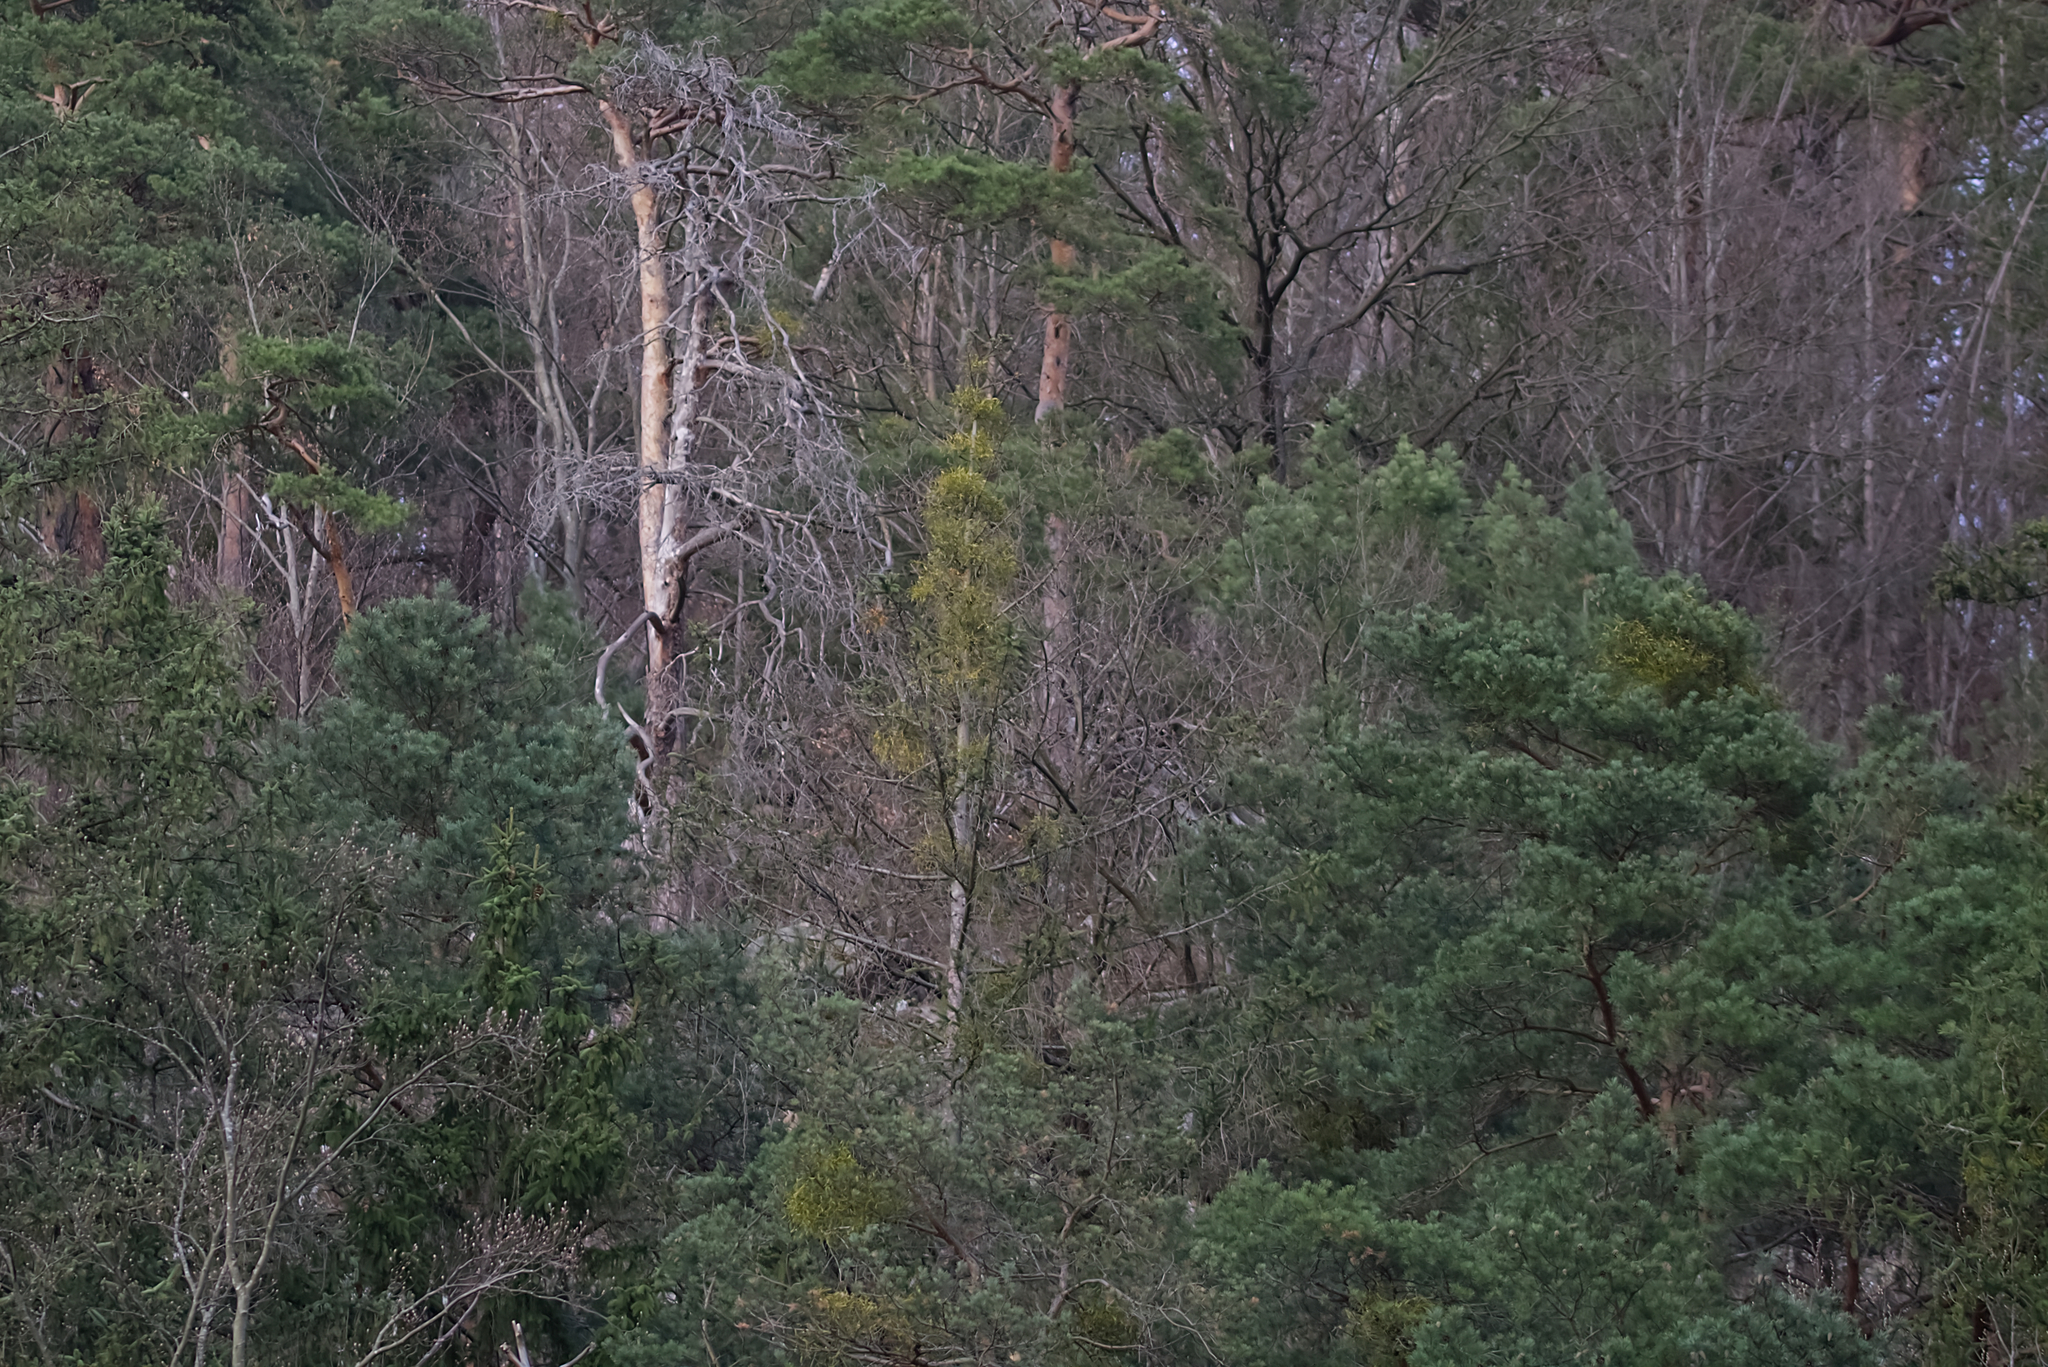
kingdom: Plantae
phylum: Tracheophyta
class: Magnoliopsida
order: Santalales
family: Viscaceae
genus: Viscum
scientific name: Viscum laxum
